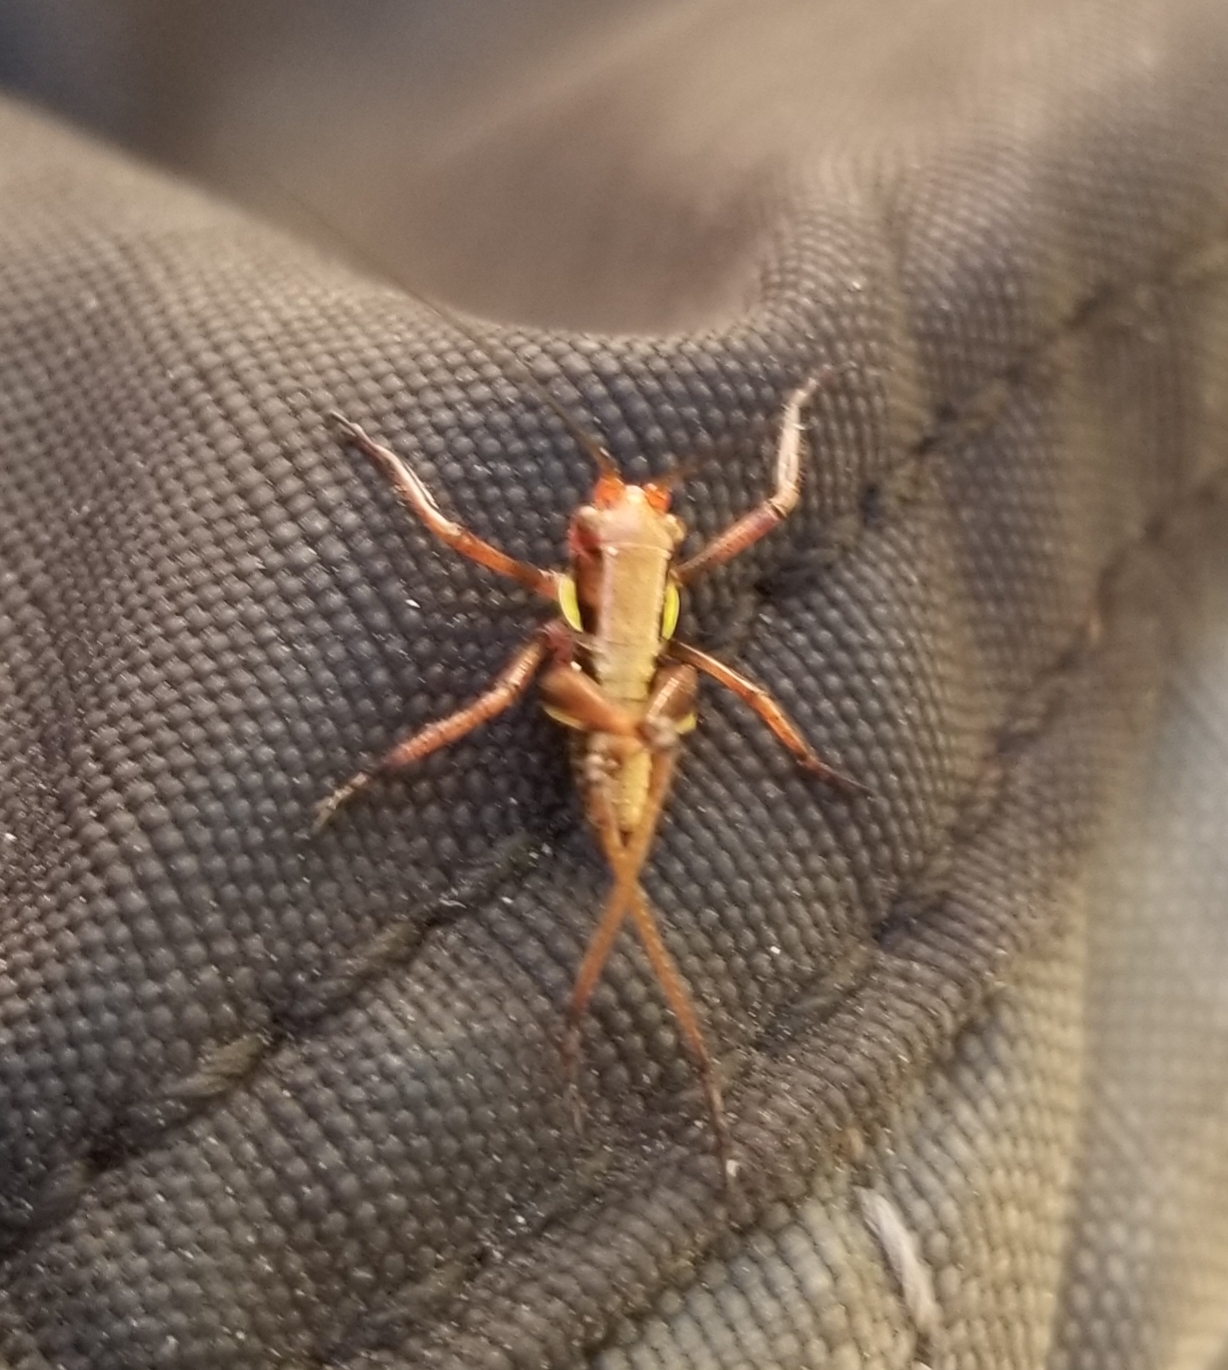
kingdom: Animalia
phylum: Arthropoda
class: Insecta
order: Orthoptera
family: Tettigoniidae
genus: Decticita
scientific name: Decticita yosemite
